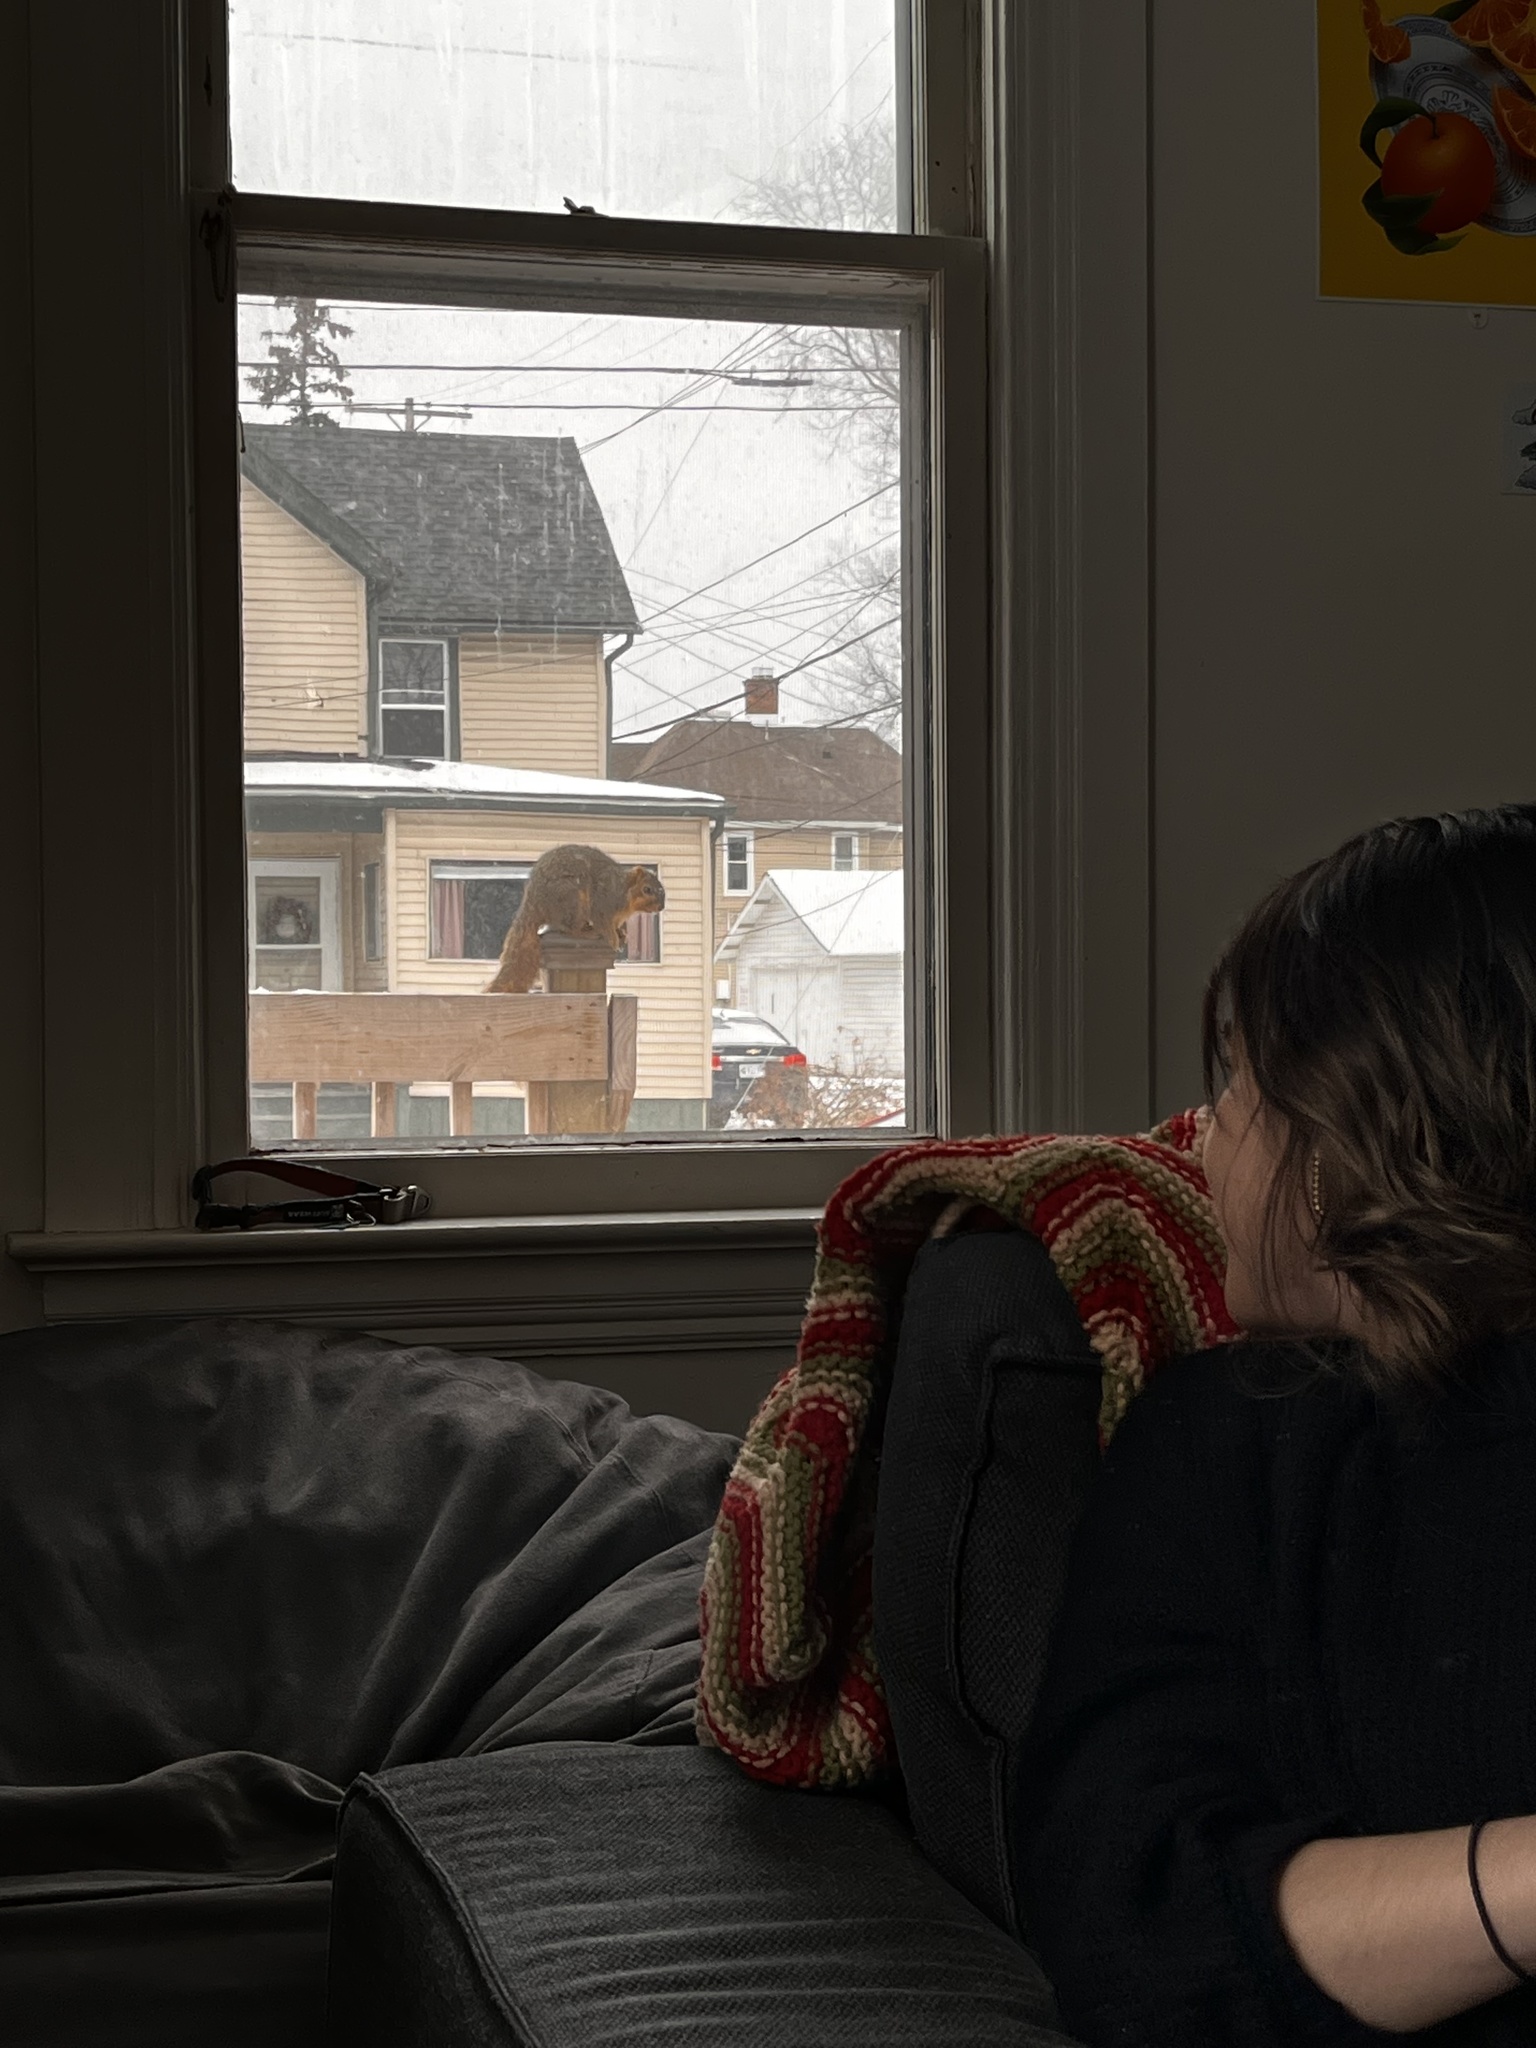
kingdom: Animalia
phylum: Chordata
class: Mammalia
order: Rodentia
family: Sciuridae
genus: Sciurus
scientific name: Sciurus niger
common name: Fox squirrel
